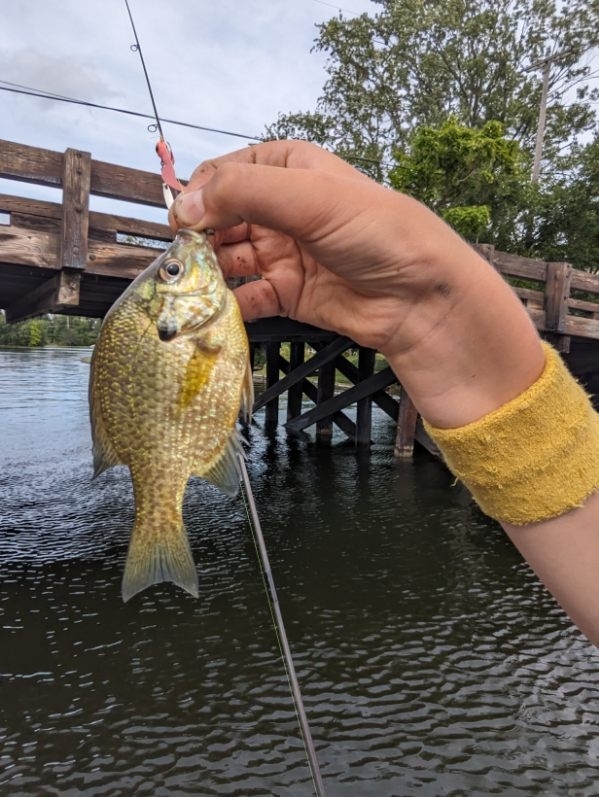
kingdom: Animalia
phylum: Chordata
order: Perciformes
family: Centrarchidae
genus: Lepomis
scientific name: Lepomis
